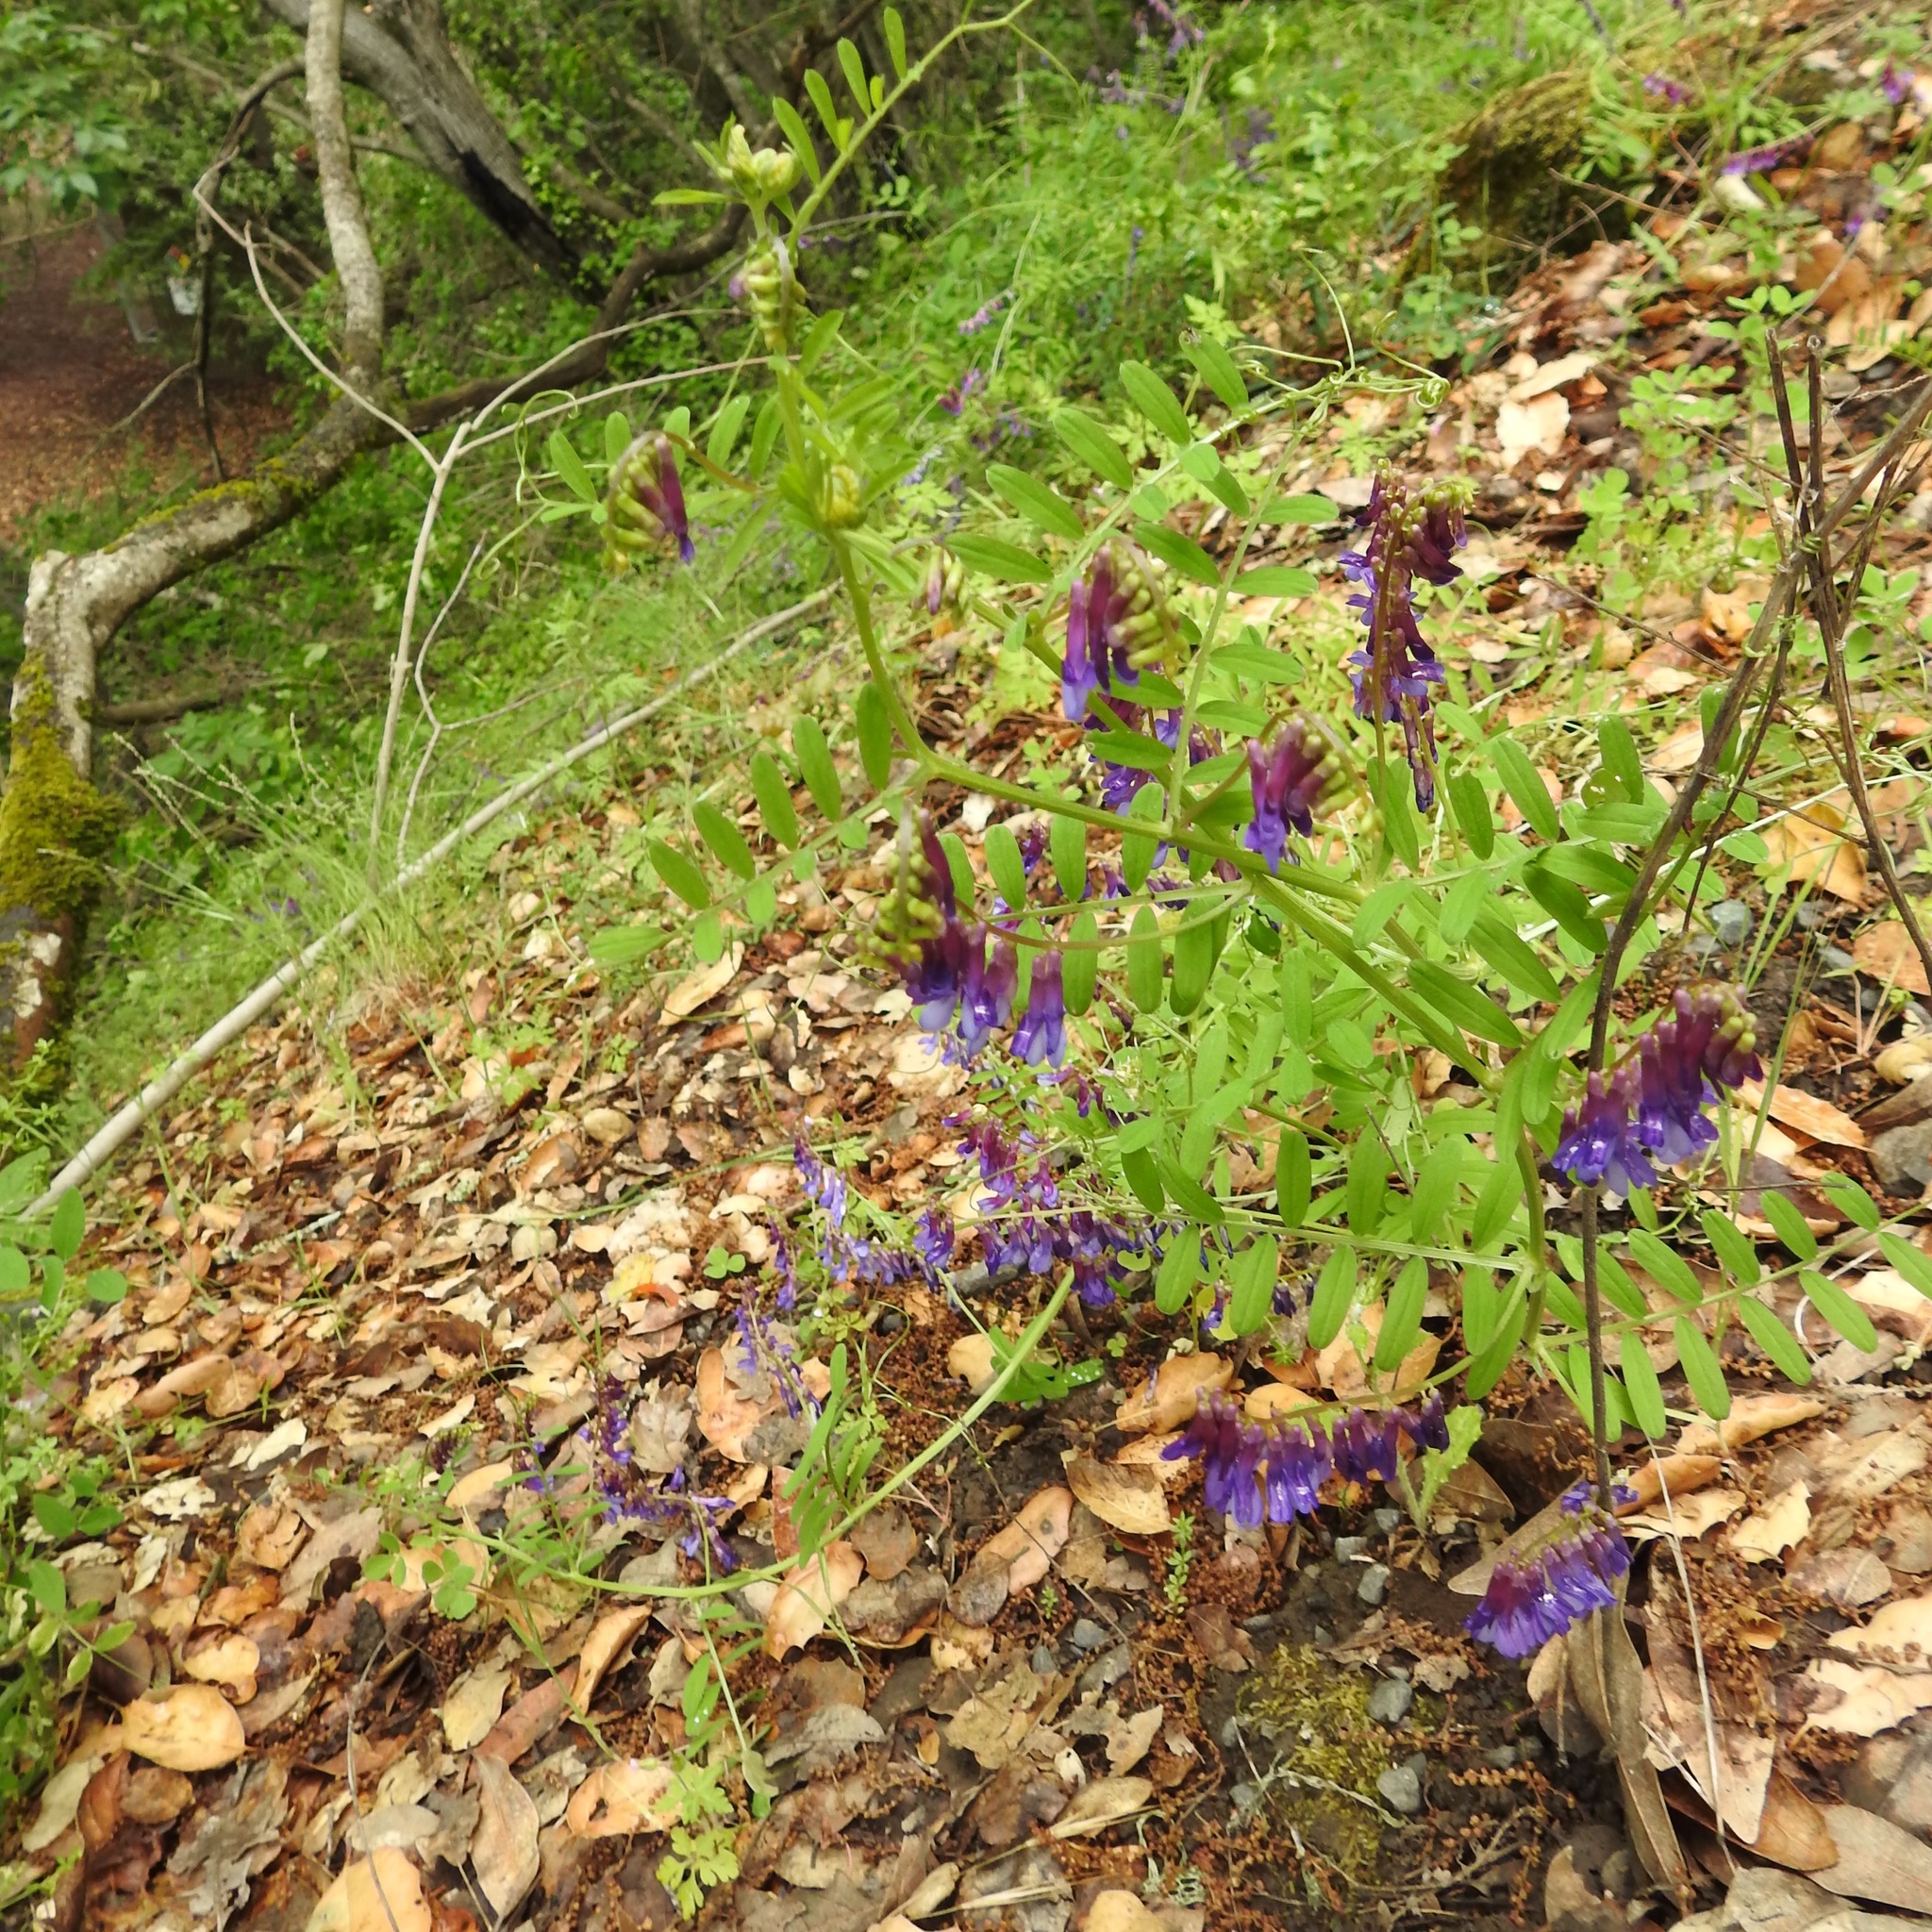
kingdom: Plantae
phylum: Tracheophyta
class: Magnoliopsida
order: Fabales
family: Fabaceae
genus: Vicia
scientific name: Vicia villosa
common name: Fodder vetch
